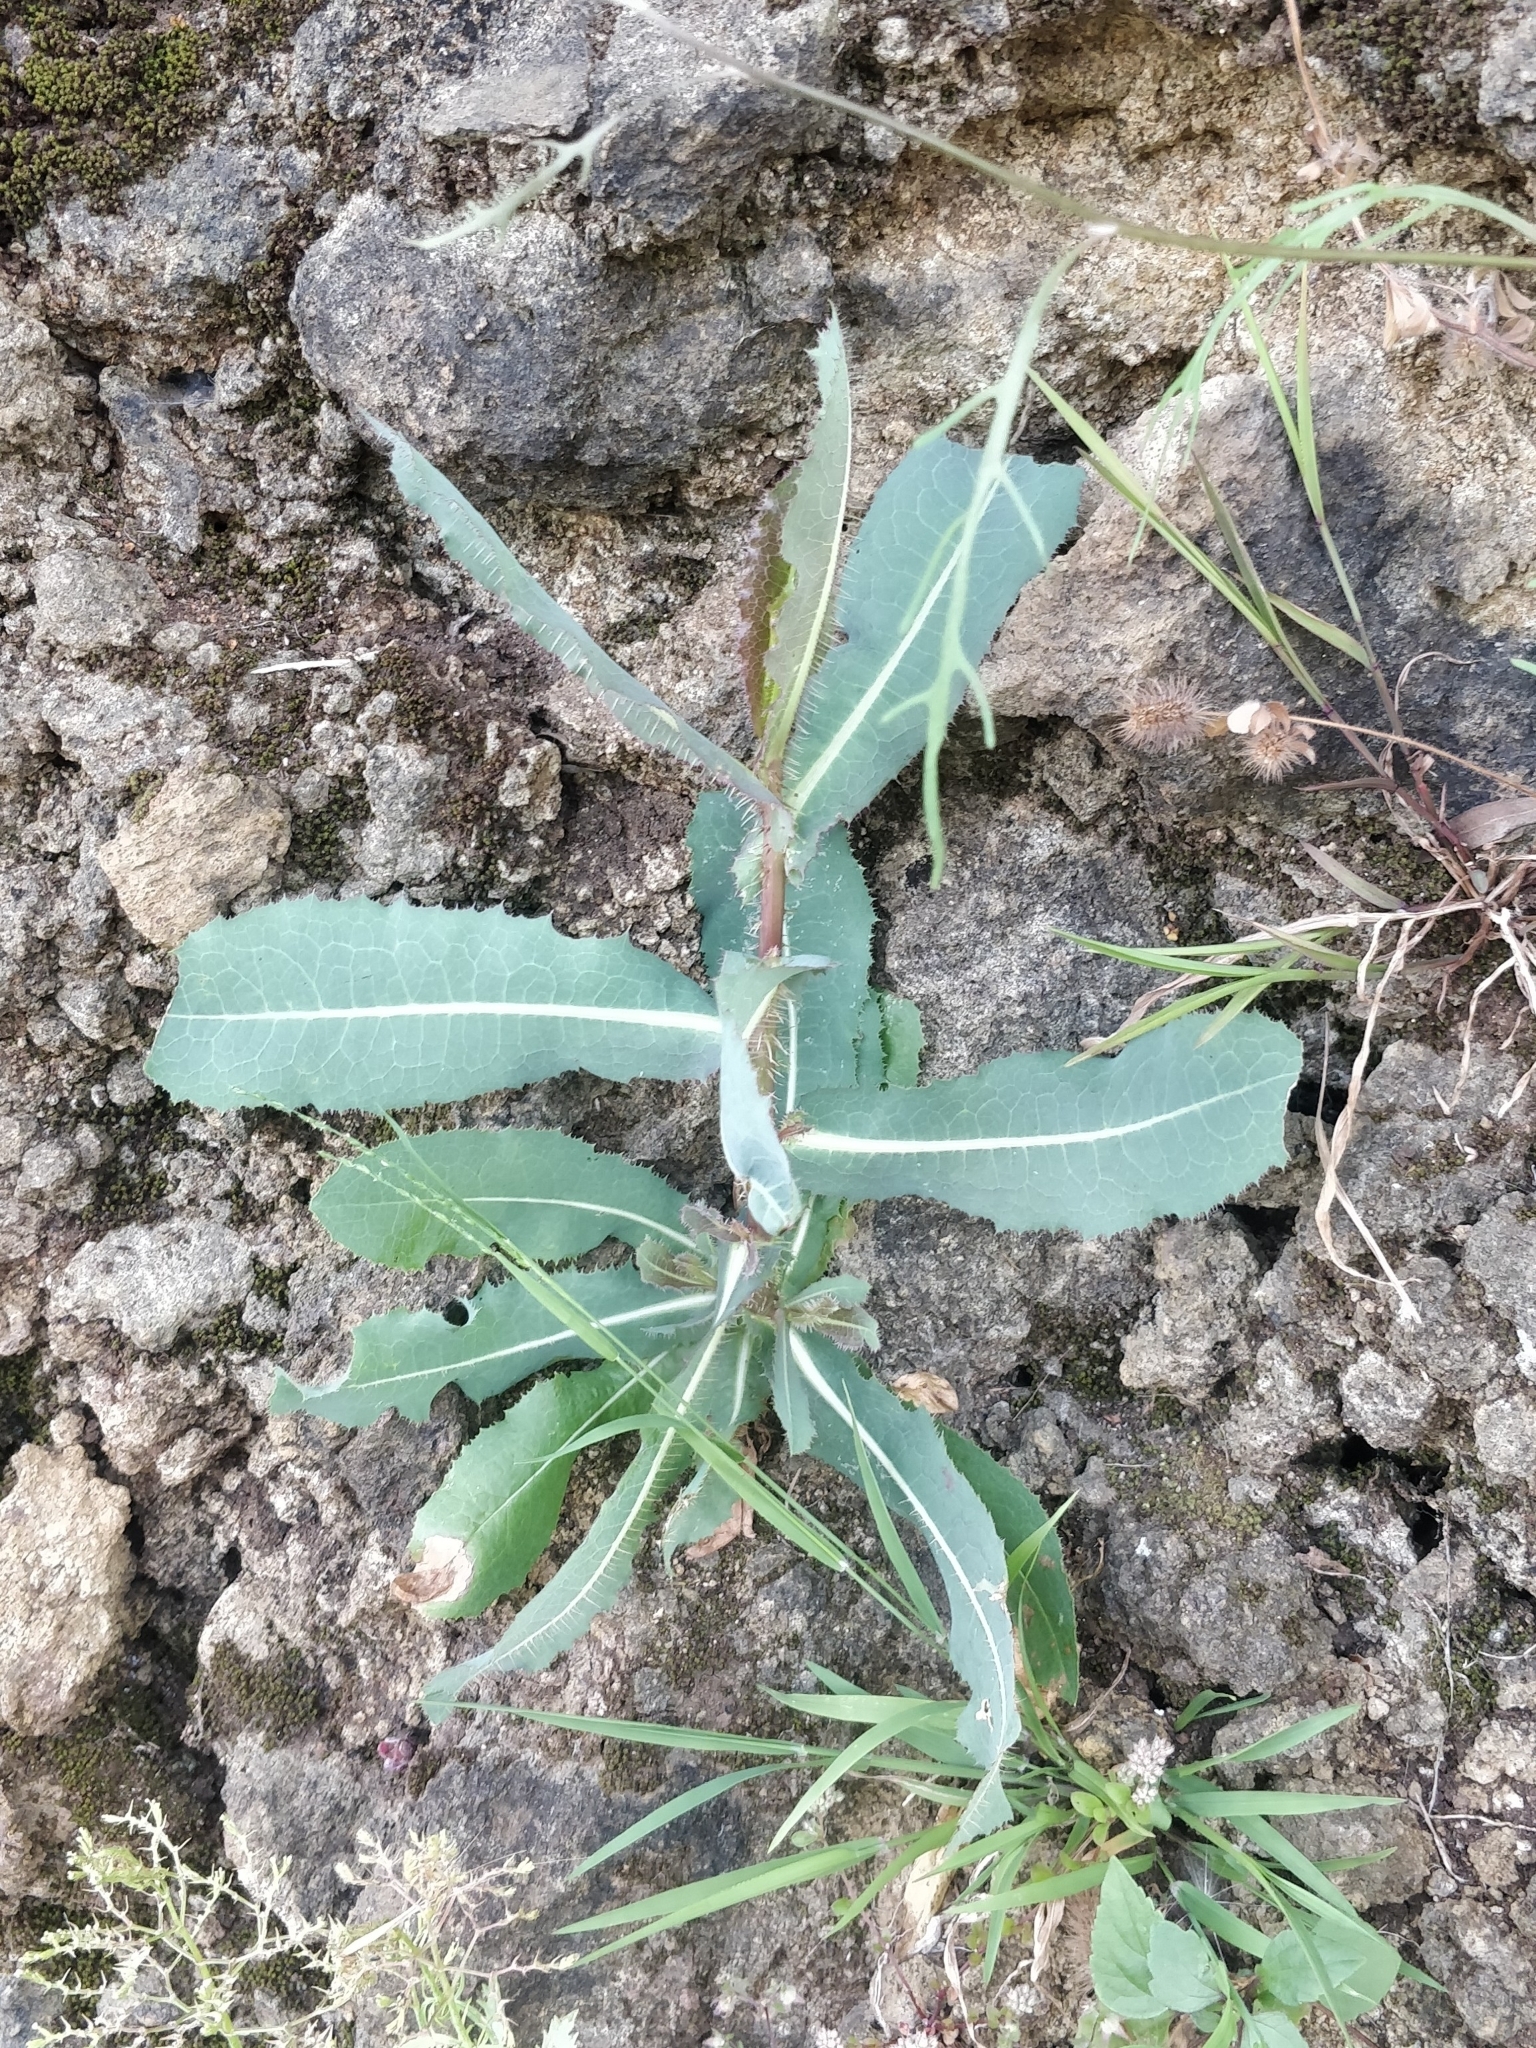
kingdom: Plantae
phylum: Tracheophyta
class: Magnoliopsida
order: Asterales
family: Asteraceae
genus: Lactuca
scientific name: Lactuca serriola
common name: Prickly lettuce
